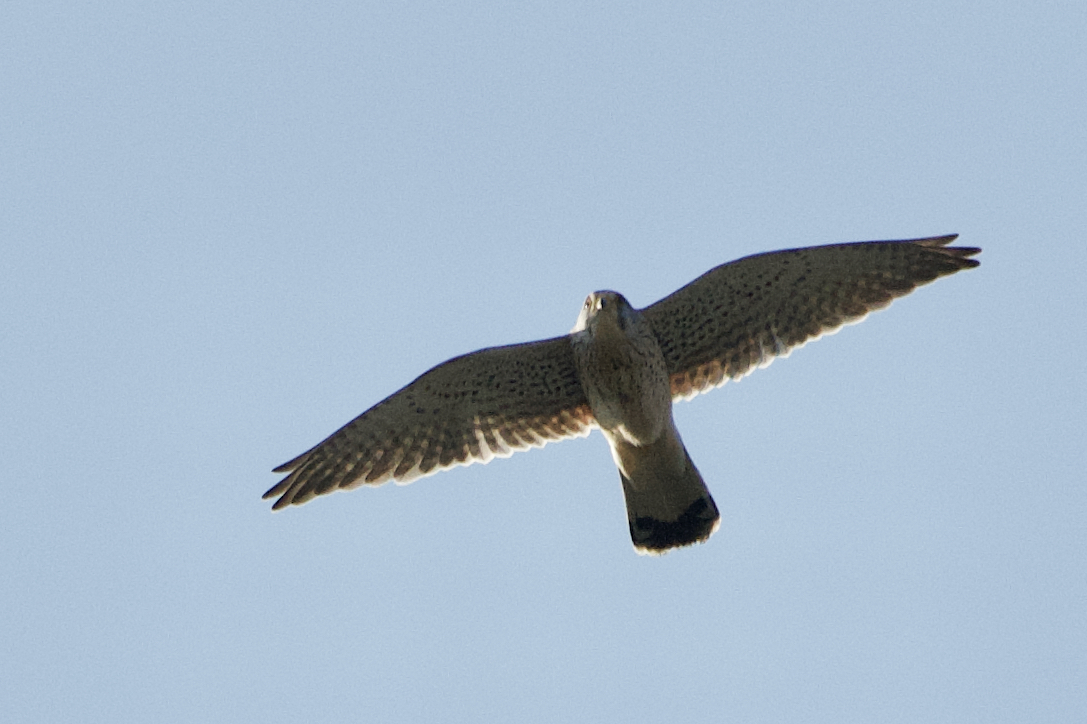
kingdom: Animalia
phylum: Chordata
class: Aves
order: Falconiformes
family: Falconidae
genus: Falco
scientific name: Falco tinnunculus
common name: Common kestrel
